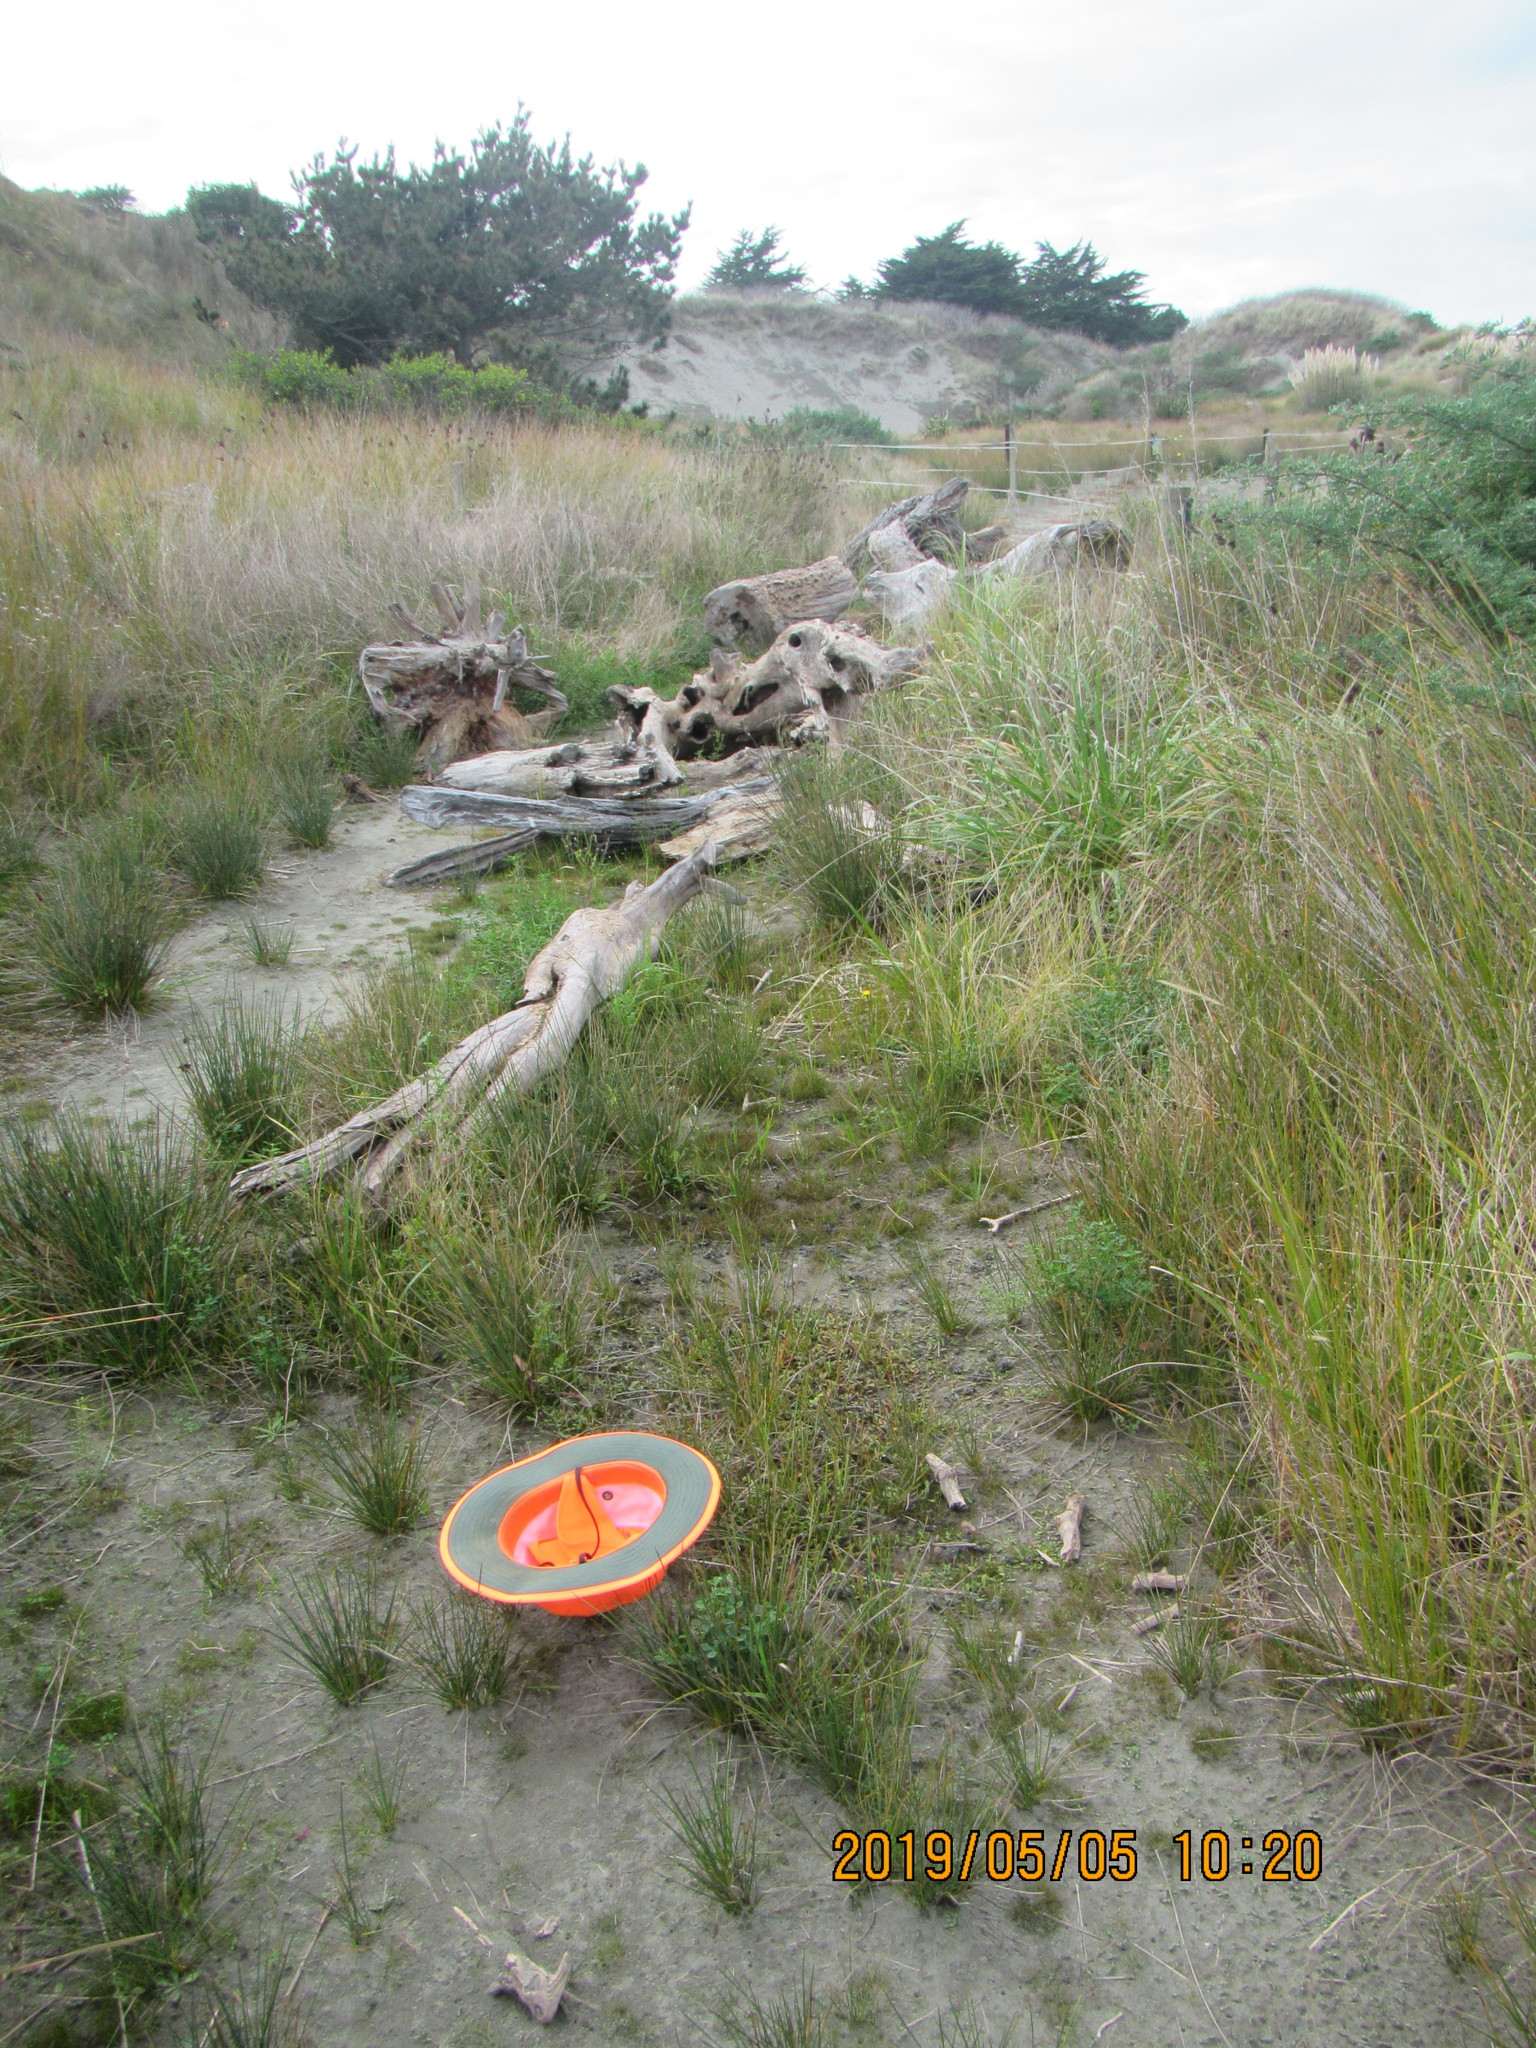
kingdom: Plantae
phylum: Tracheophyta
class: Magnoliopsida
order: Asterales
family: Goodeniaceae
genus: Goodenia
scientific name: Goodenia radicans
